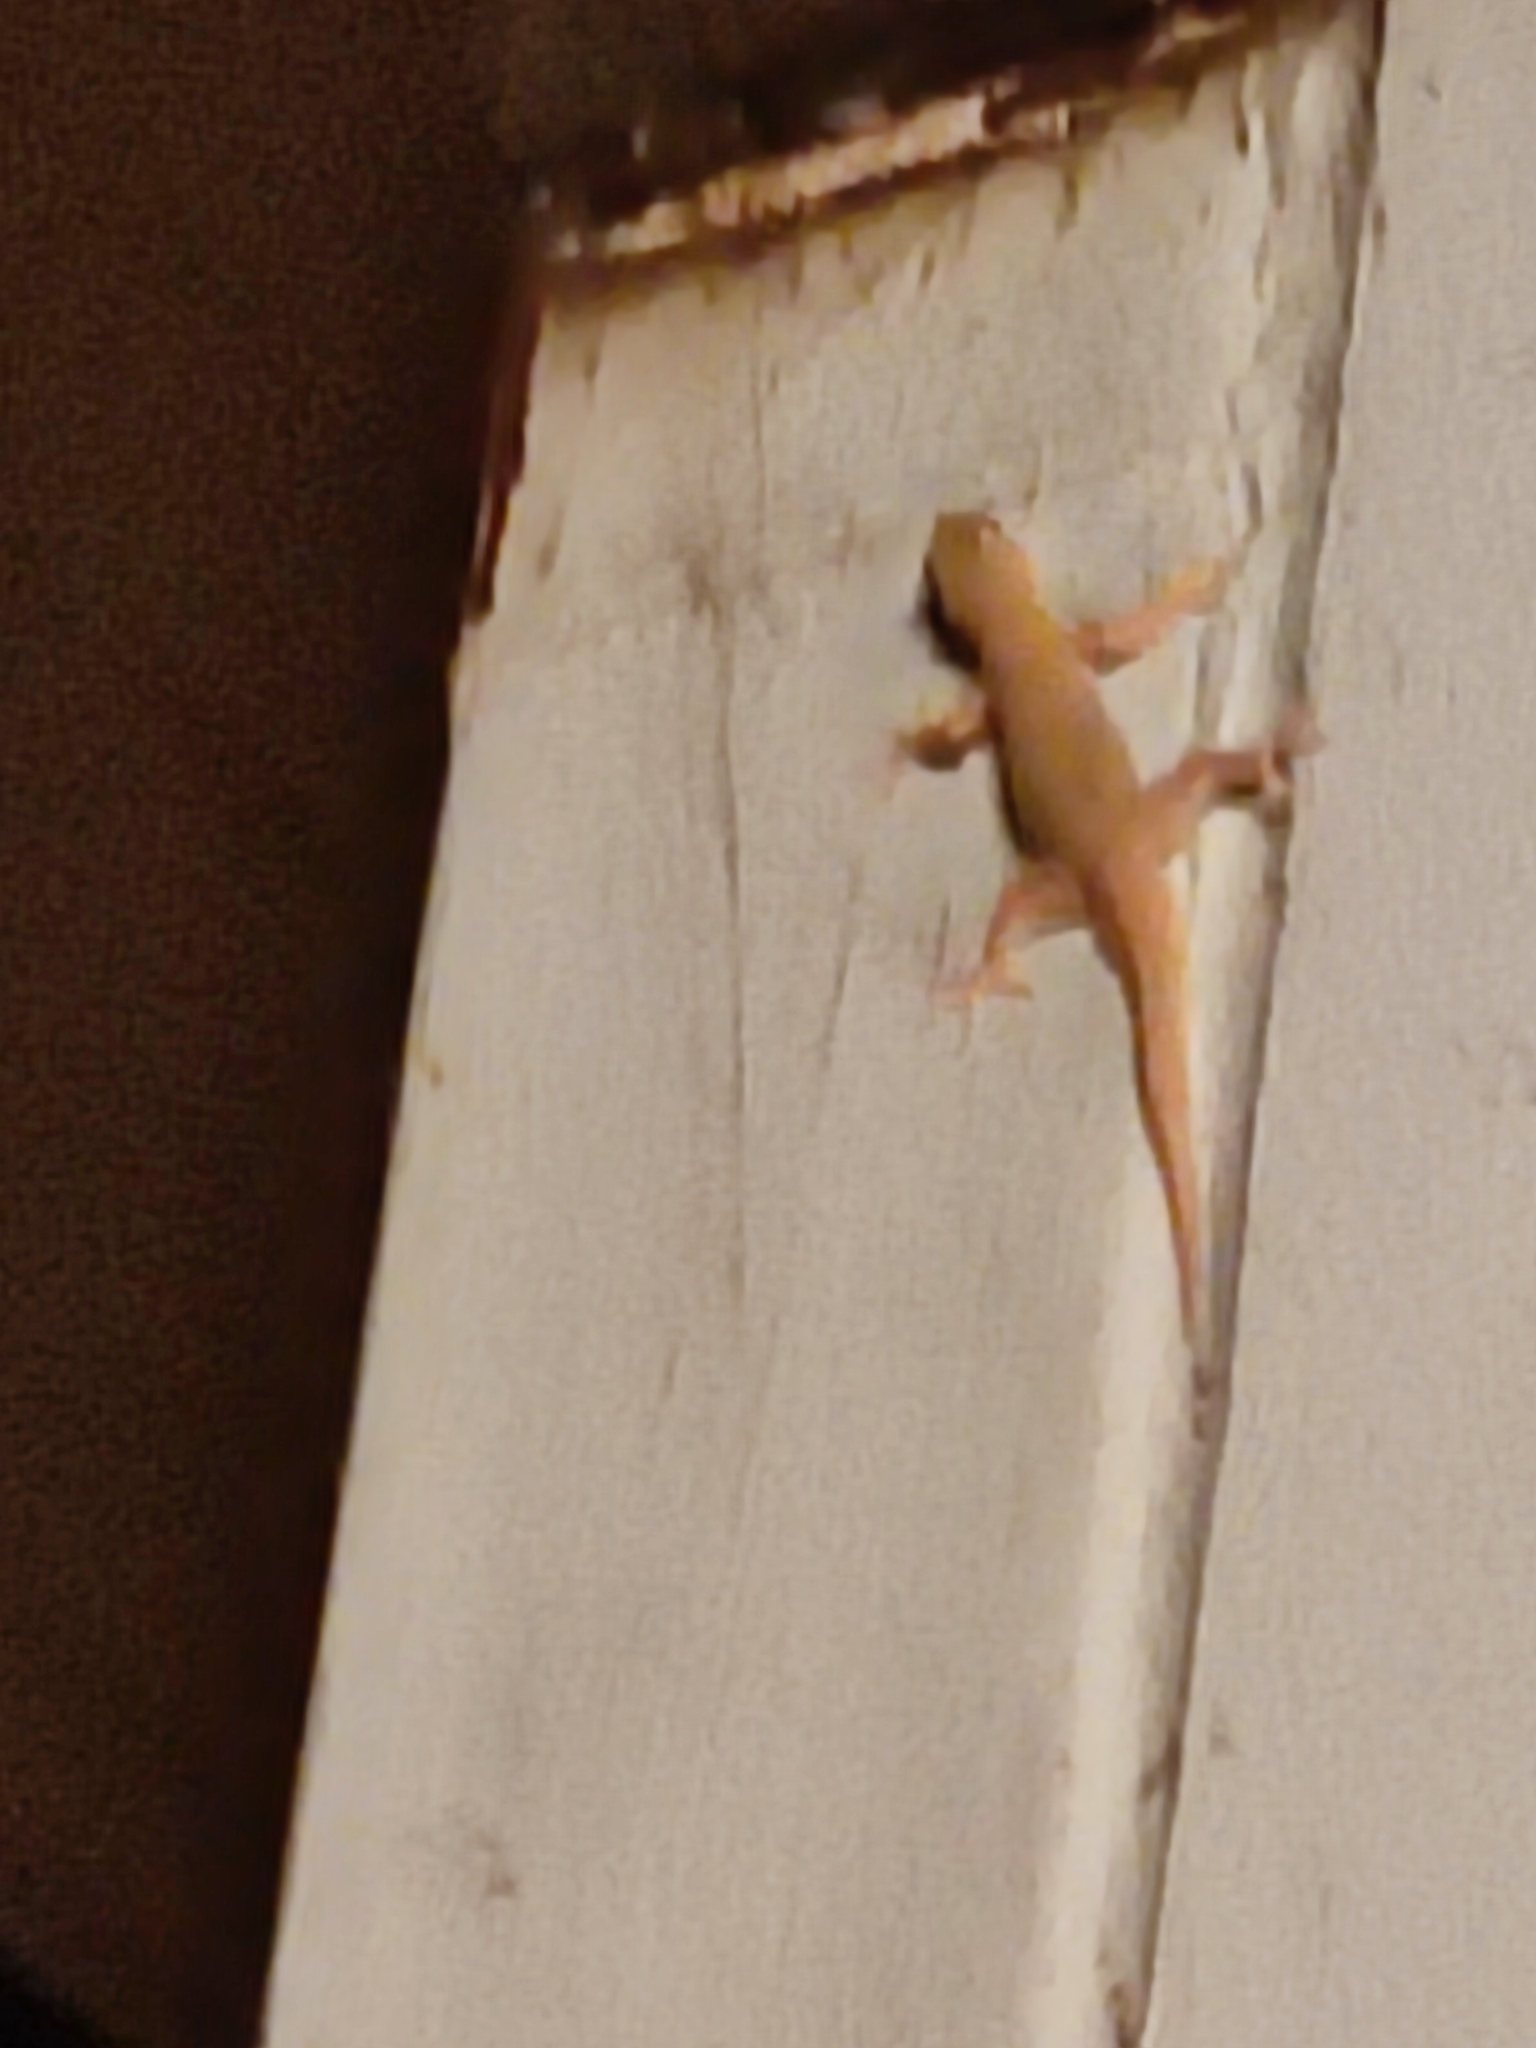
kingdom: Animalia
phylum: Chordata
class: Squamata
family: Gekkonidae
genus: Hemidactylus
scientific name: Hemidactylus platyurus
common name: Flat-tailed house gecko
